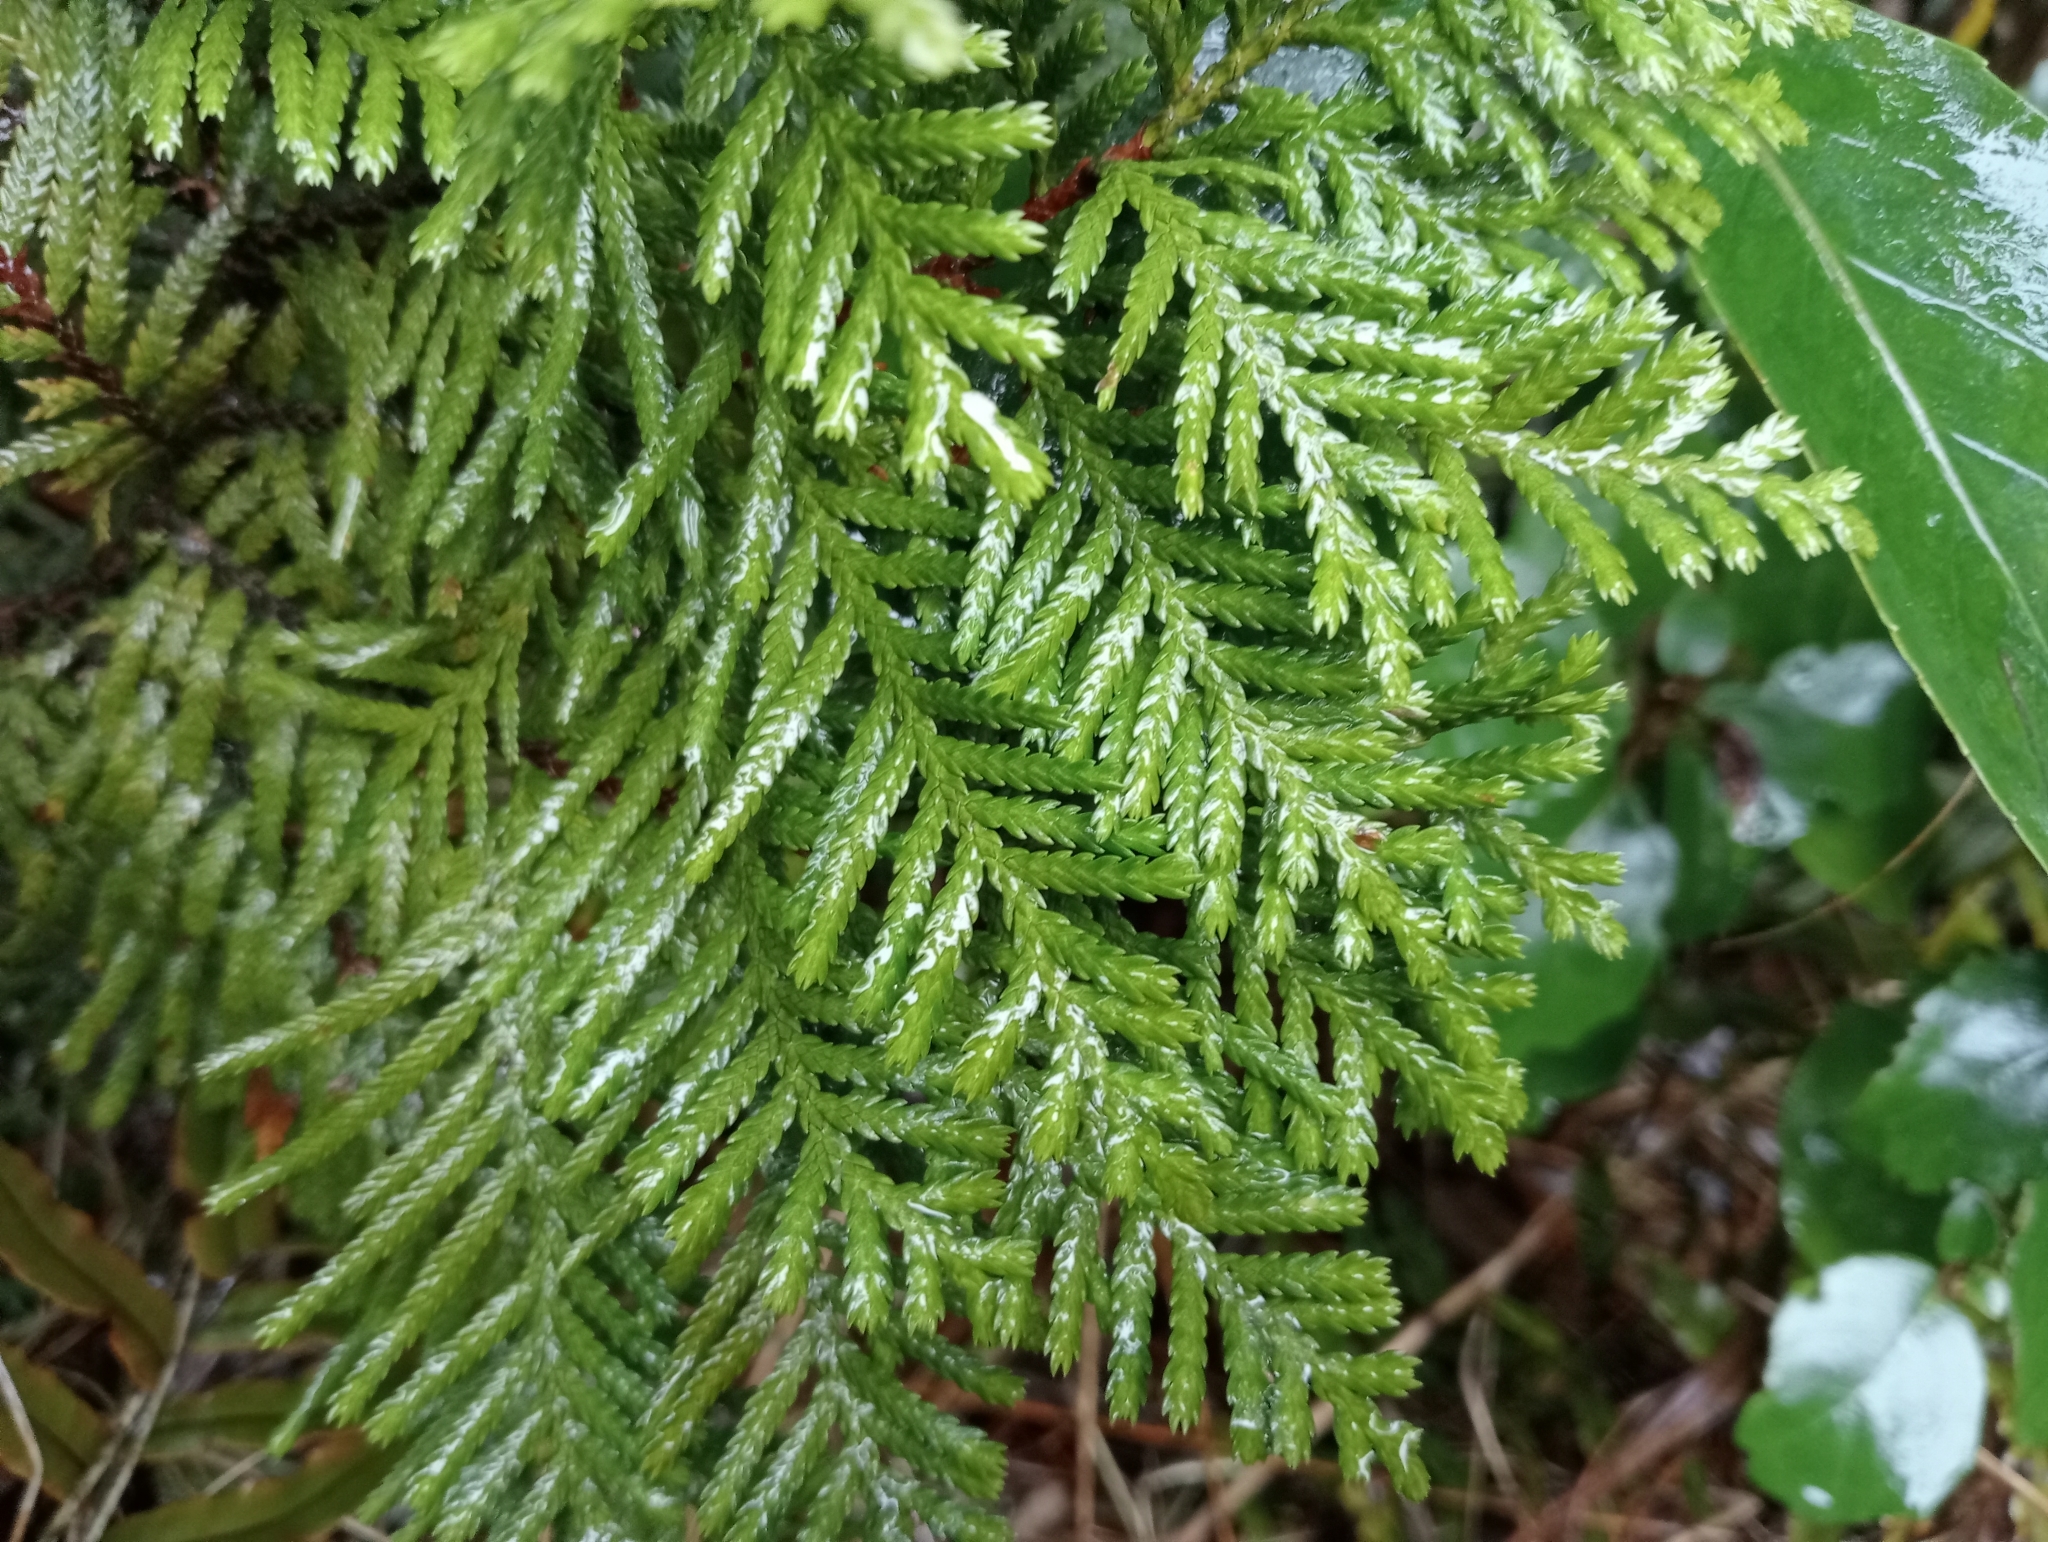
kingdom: Plantae
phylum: Tracheophyta
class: Pinopsida
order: Pinales
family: Cupressaceae
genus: Libocedrus
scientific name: Libocedrus bidwillii
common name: Cedar
